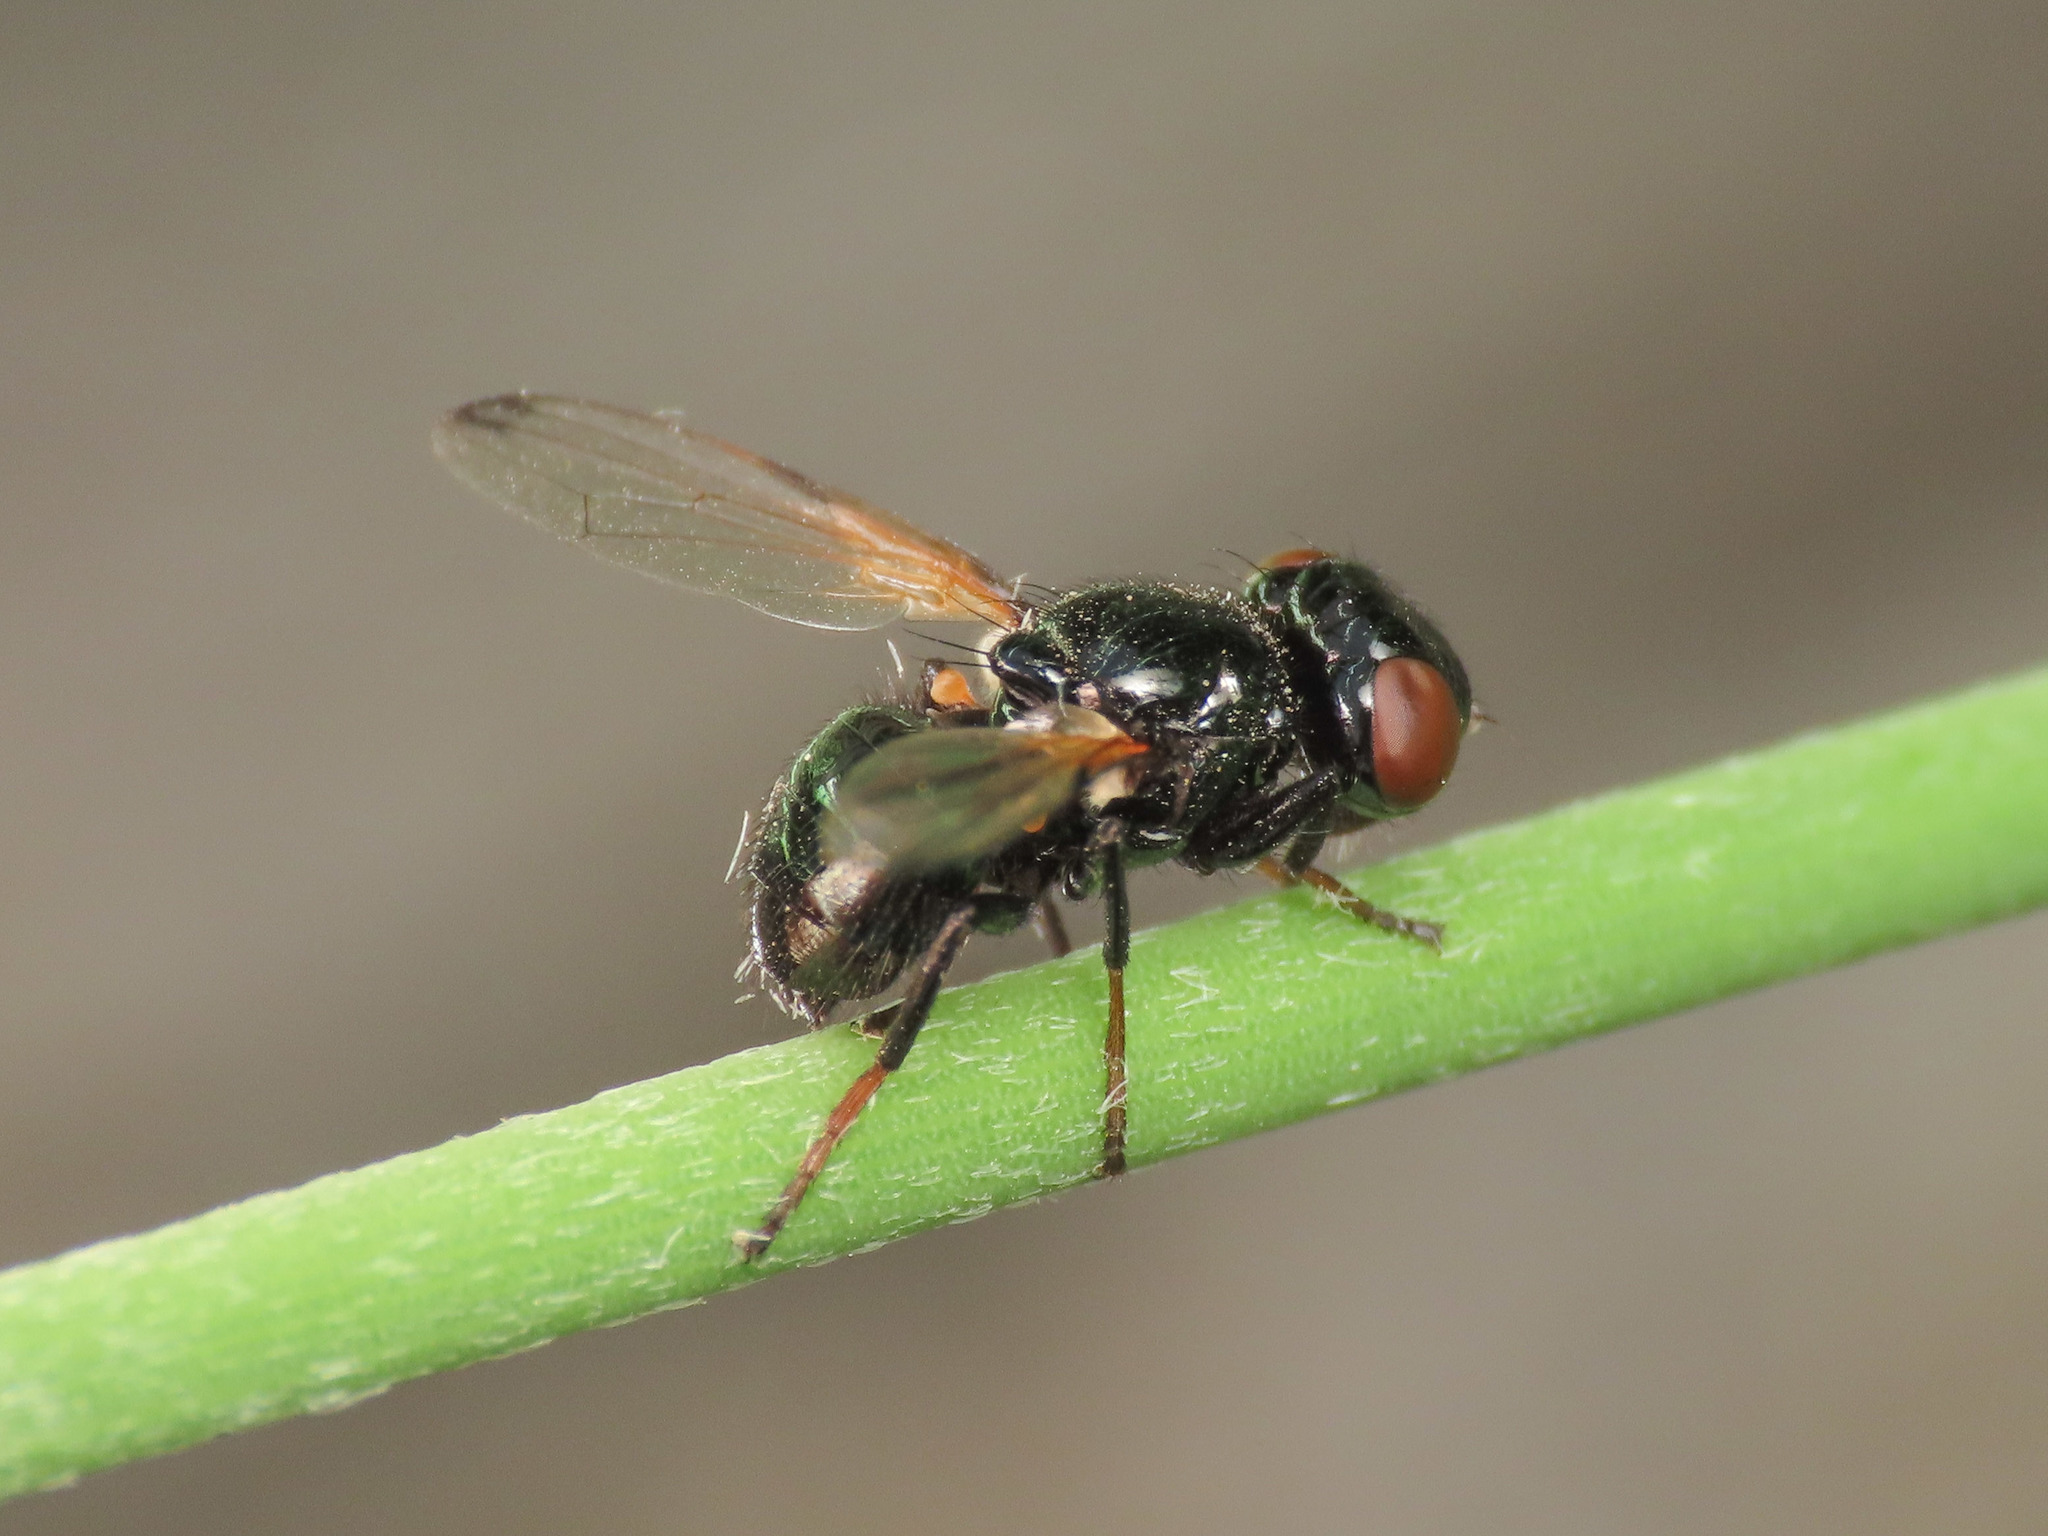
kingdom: Animalia
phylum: Arthropoda
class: Insecta
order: Diptera
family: Ulidiidae
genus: Ulidia
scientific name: Ulidia apicalis
